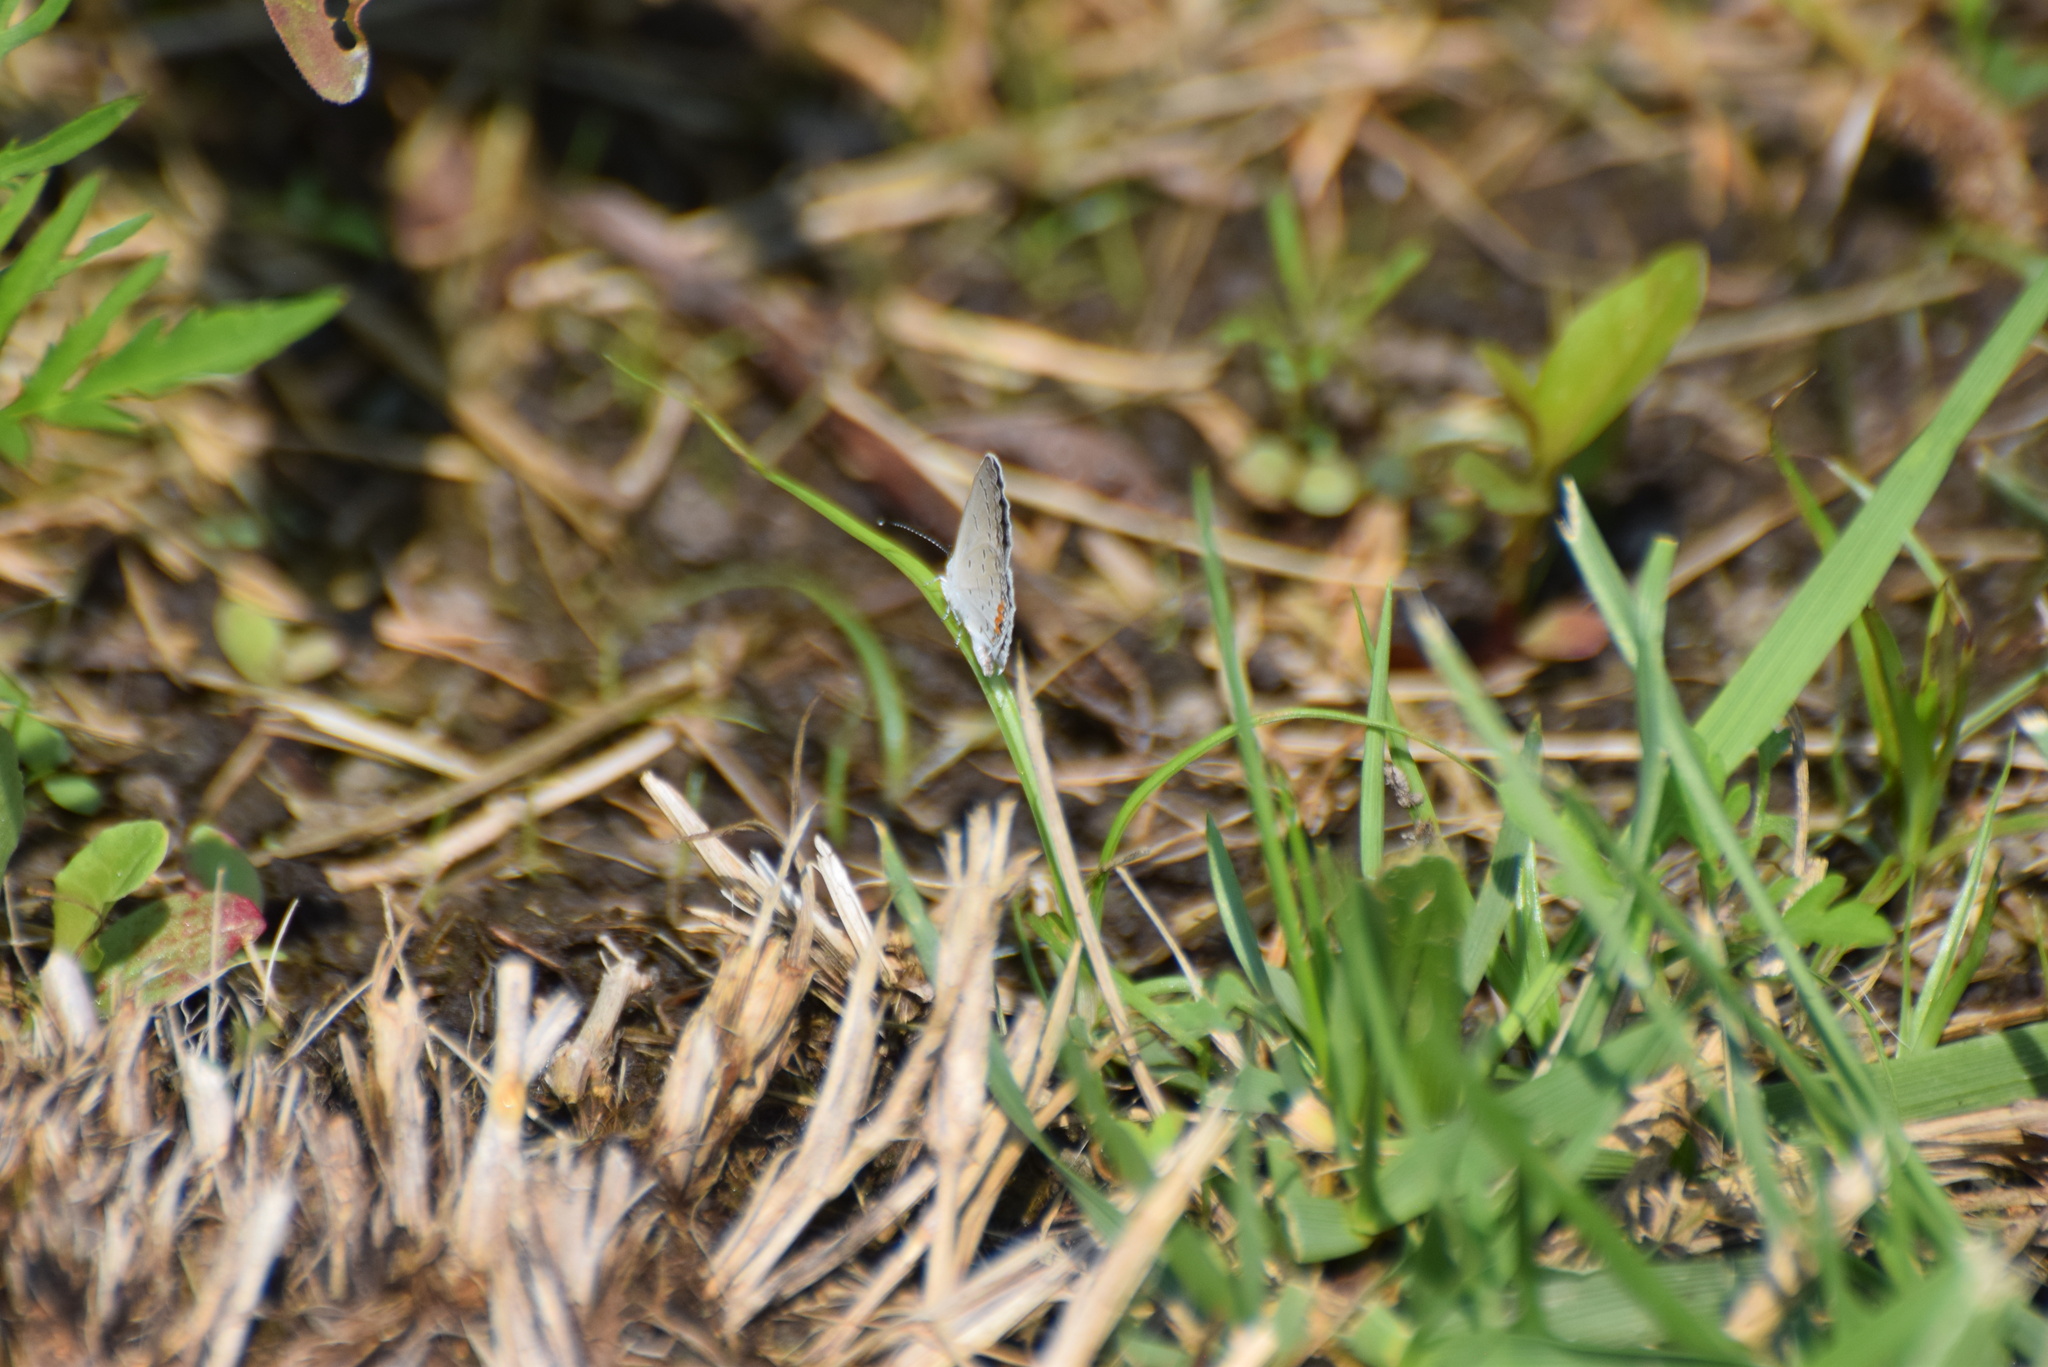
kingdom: Animalia
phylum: Arthropoda
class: Insecta
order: Lepidoptera
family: Lycaenidae
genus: Elkalyce
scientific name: Elkalyce comyntas
